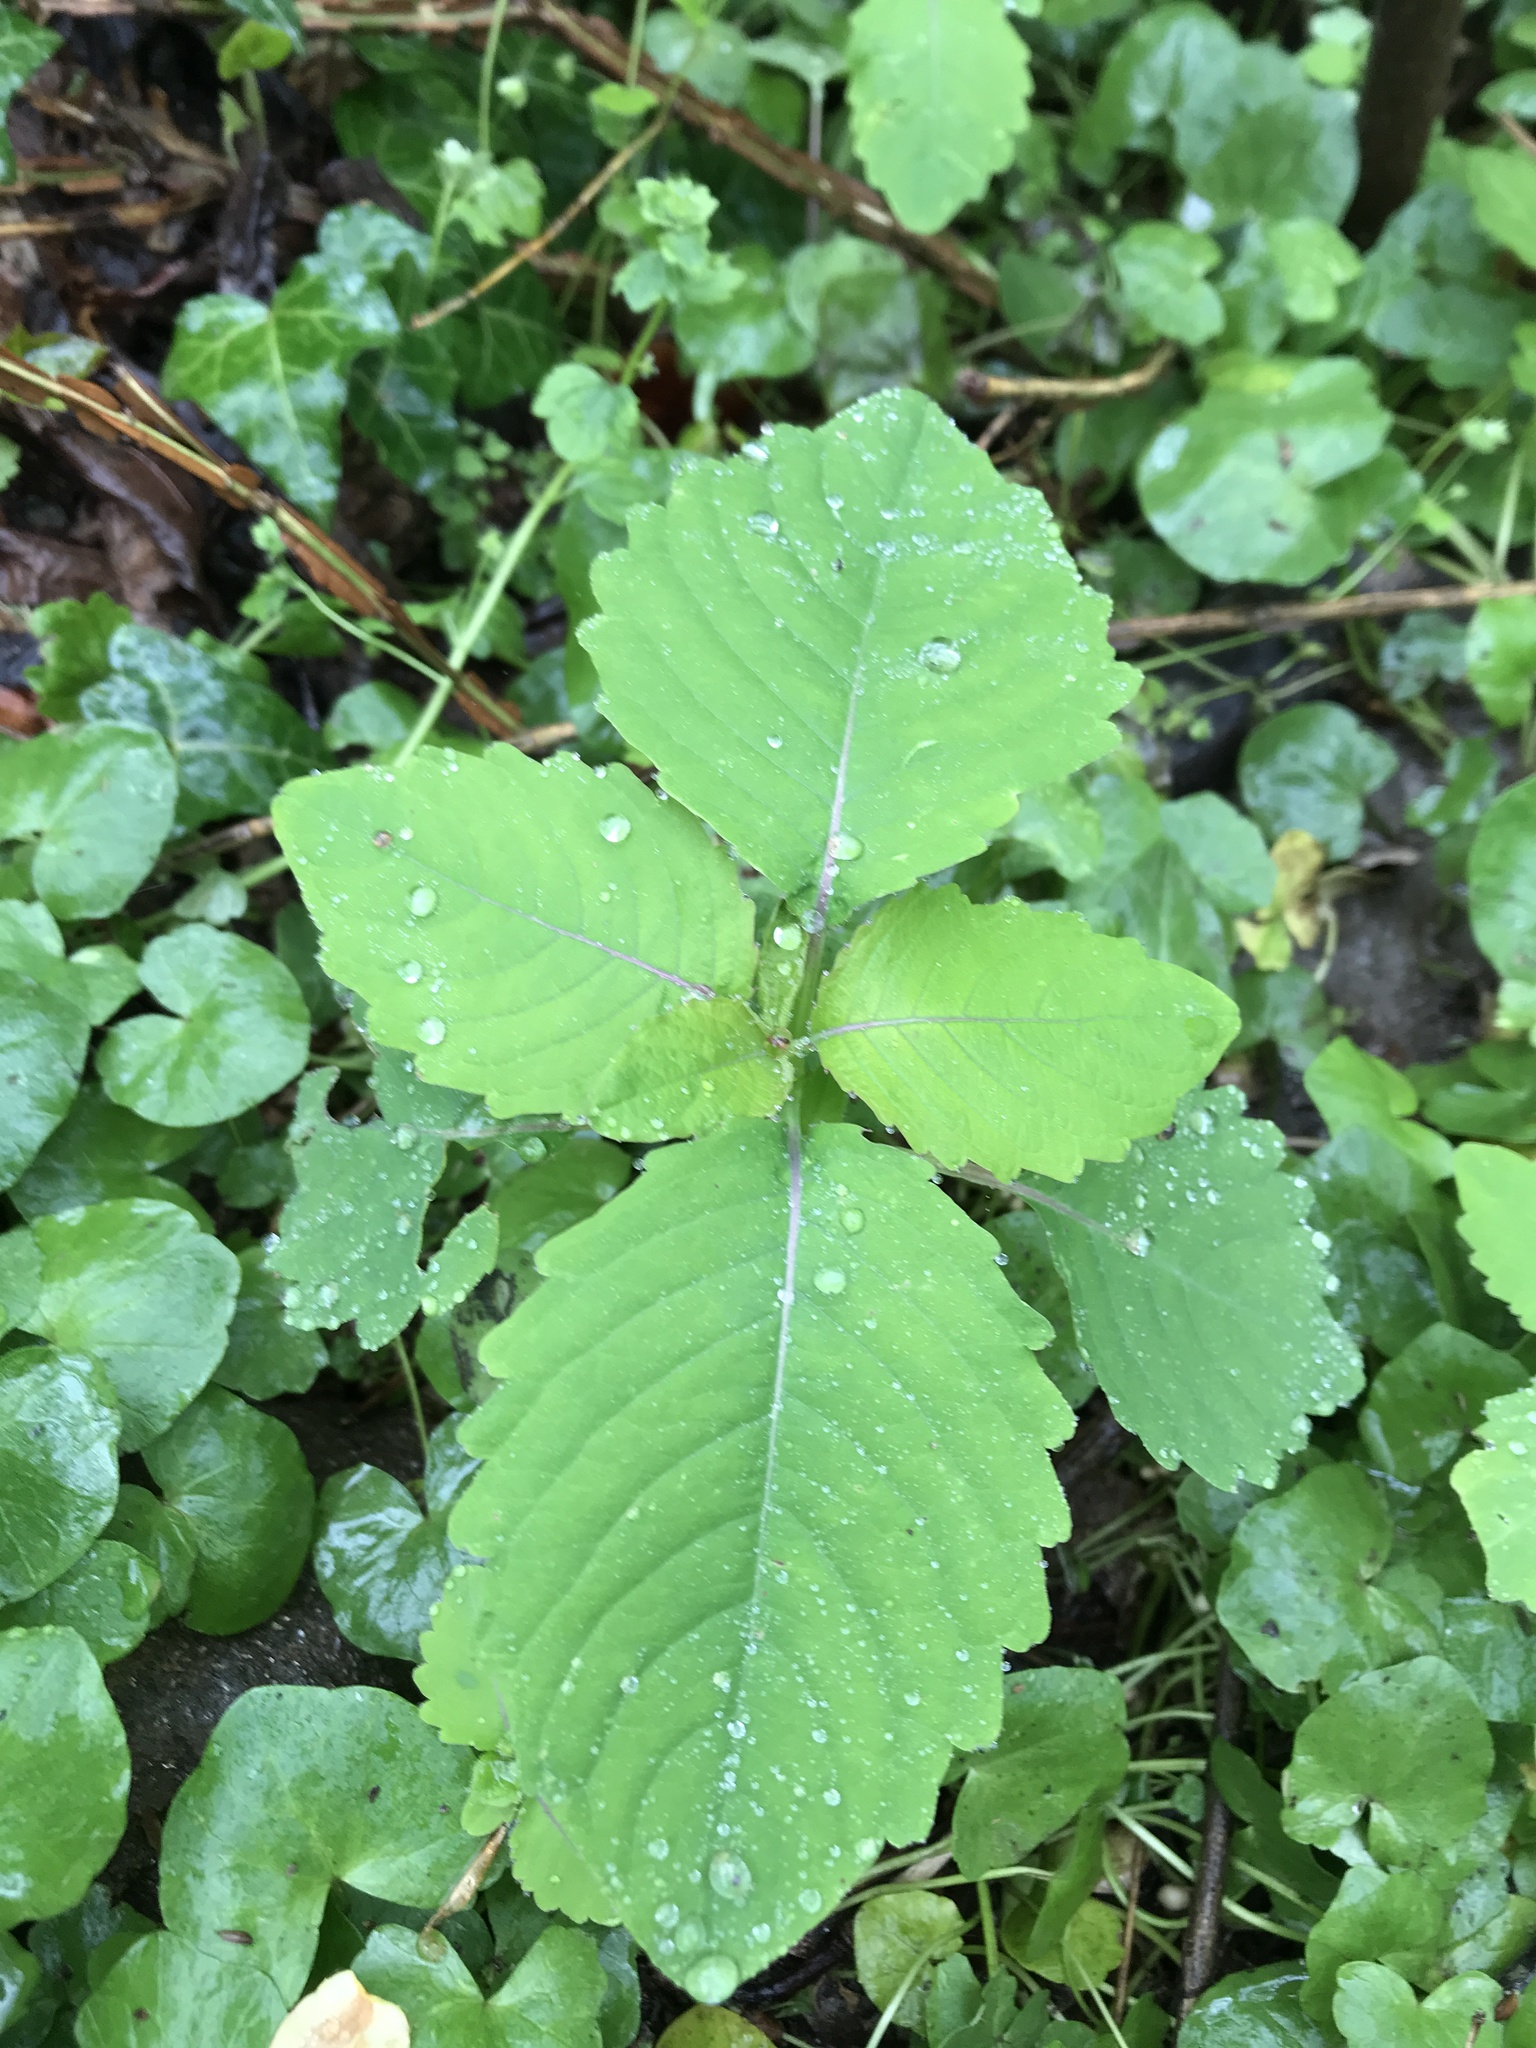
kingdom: Plantae
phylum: Tracheophyta
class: Magnoliopsida
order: Ericales
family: Balsaminaceae
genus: Impatiens
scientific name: Impatiens
